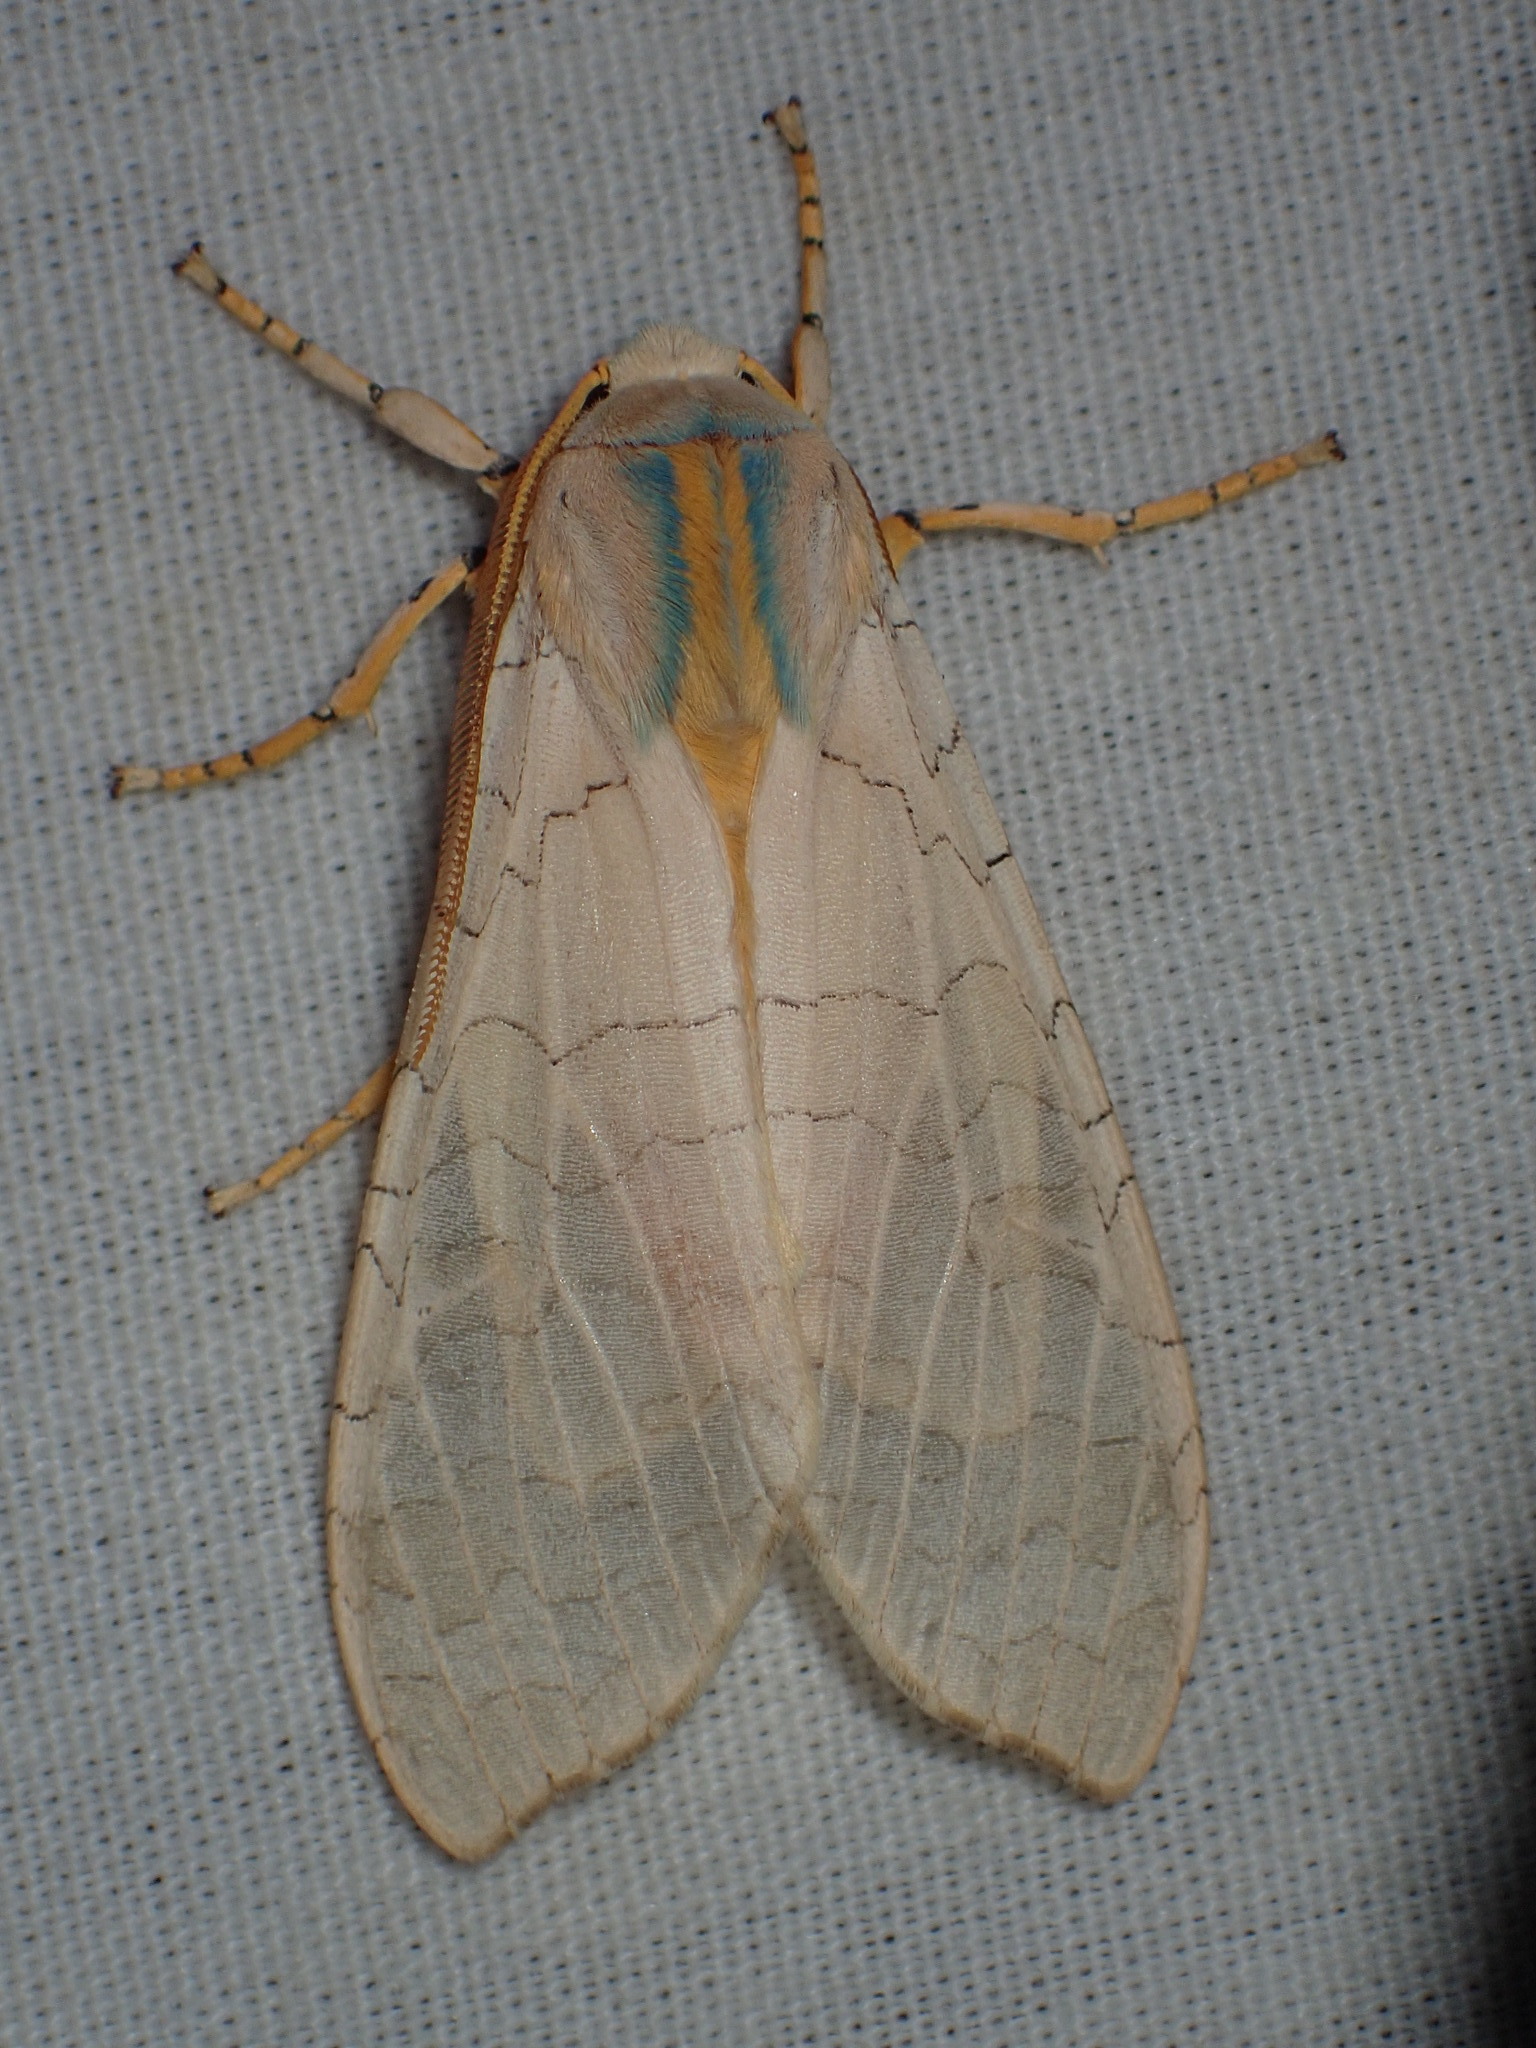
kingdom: Animalia
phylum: Arthropoda
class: Insecta
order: Lepidoptera
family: Erebidae
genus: Halysidota
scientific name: Halysidota
